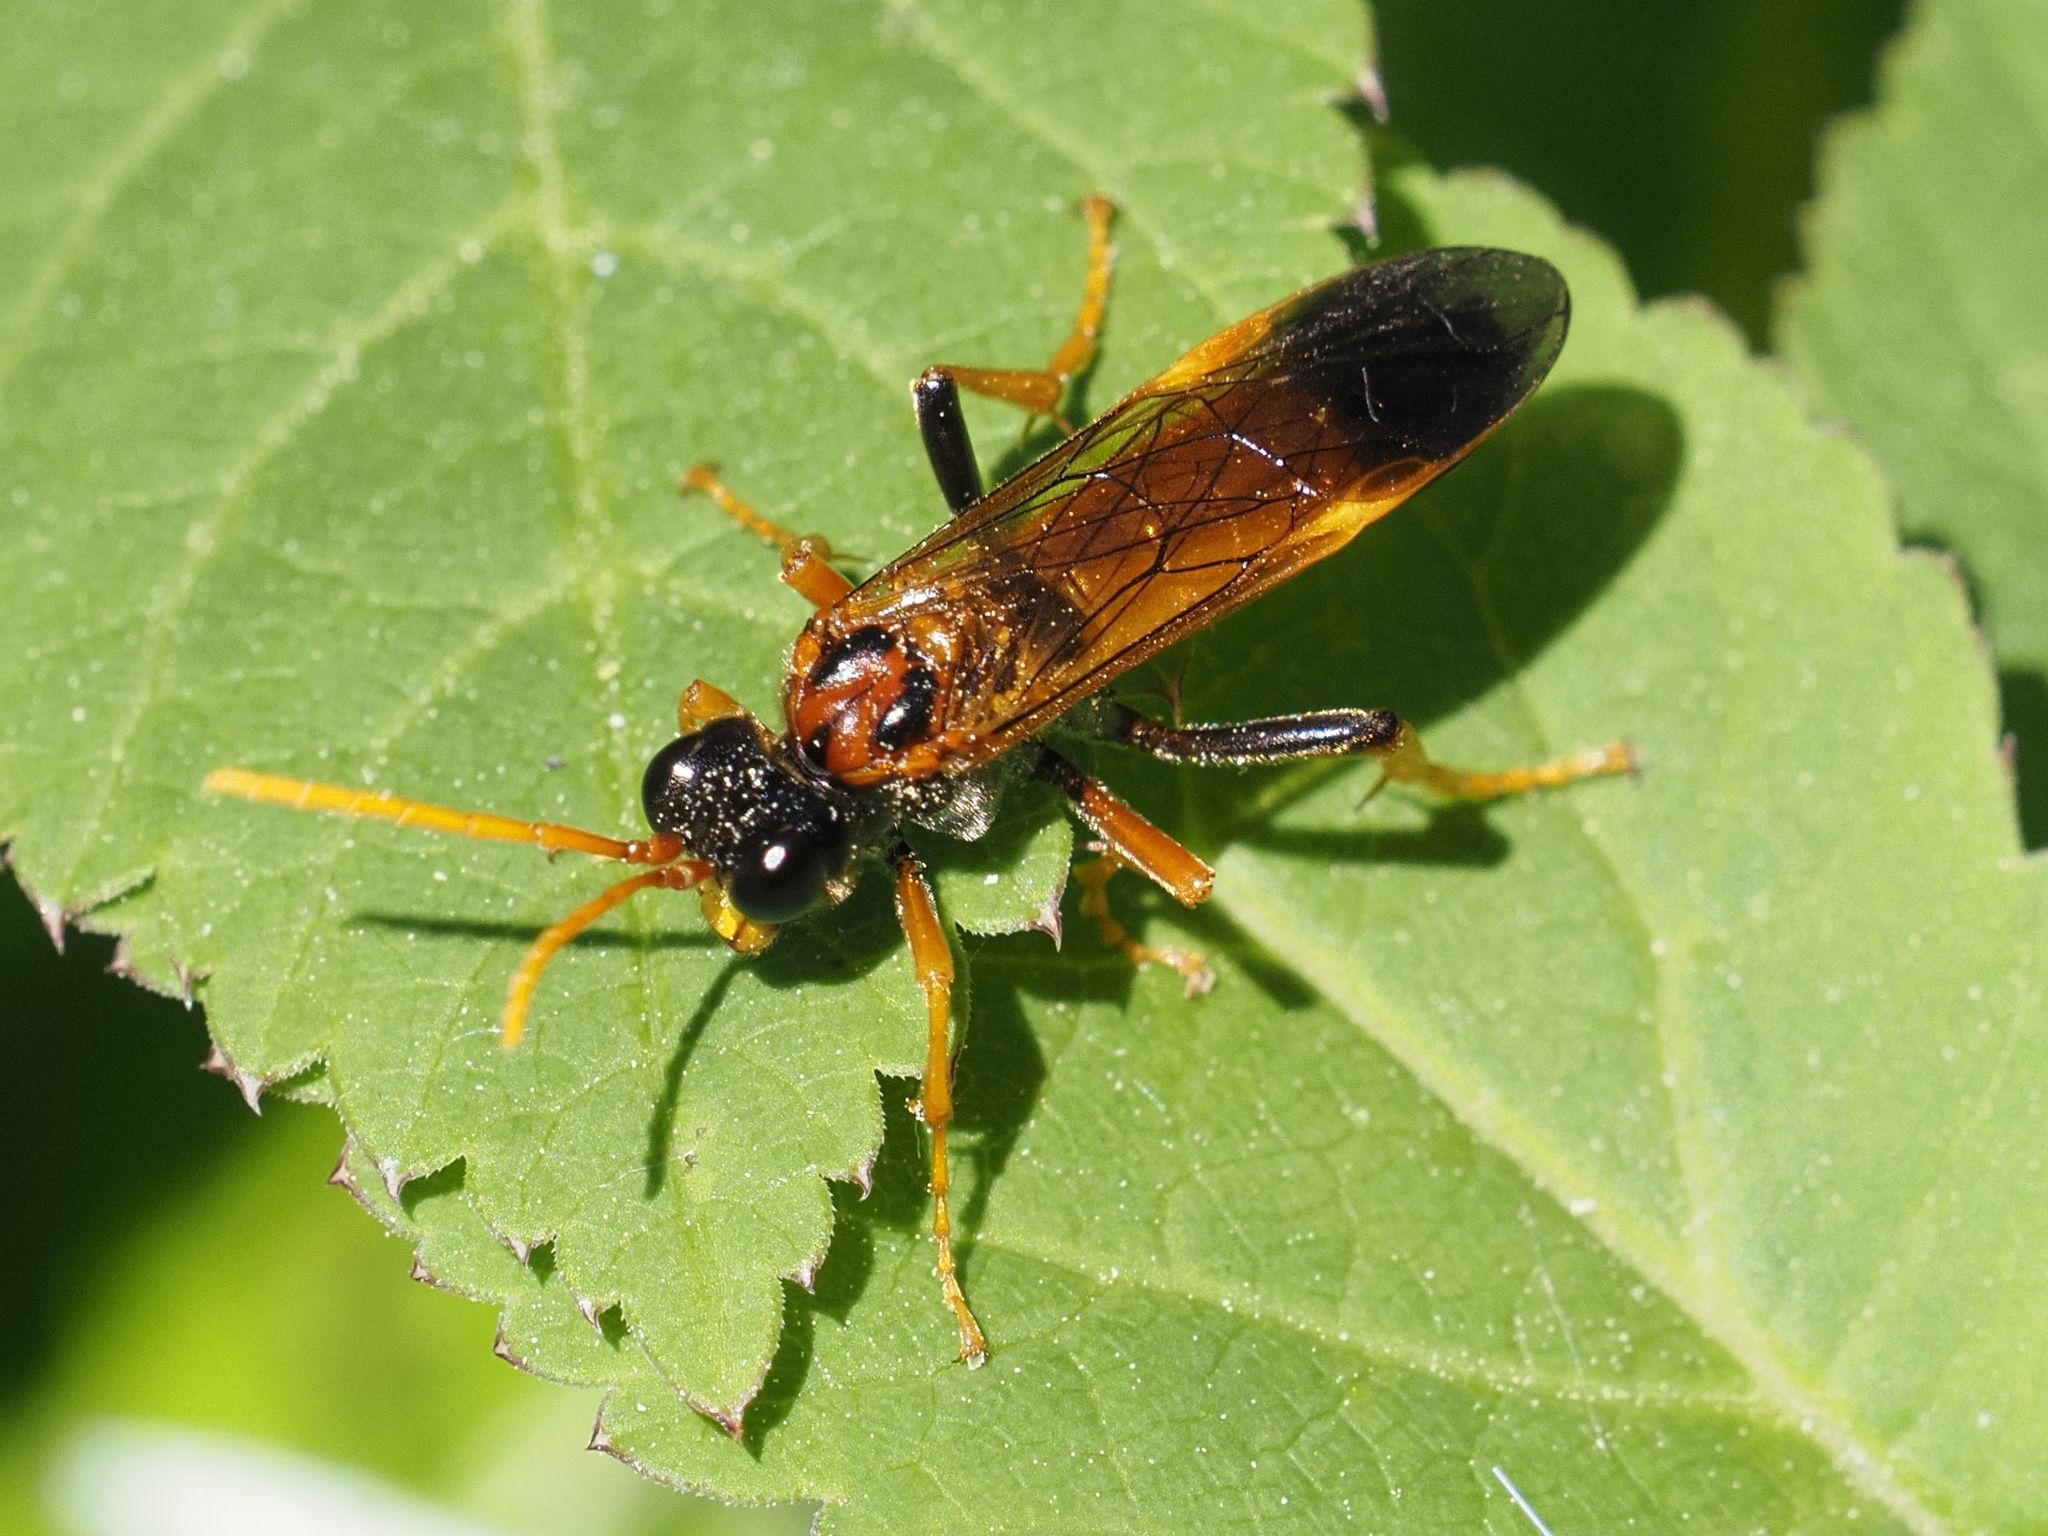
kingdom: Animalia
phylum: Arthropoda
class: Insecta
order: Hymenoptera
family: Tenthredinidae
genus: Tenthredo
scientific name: Tenthredo campestris
